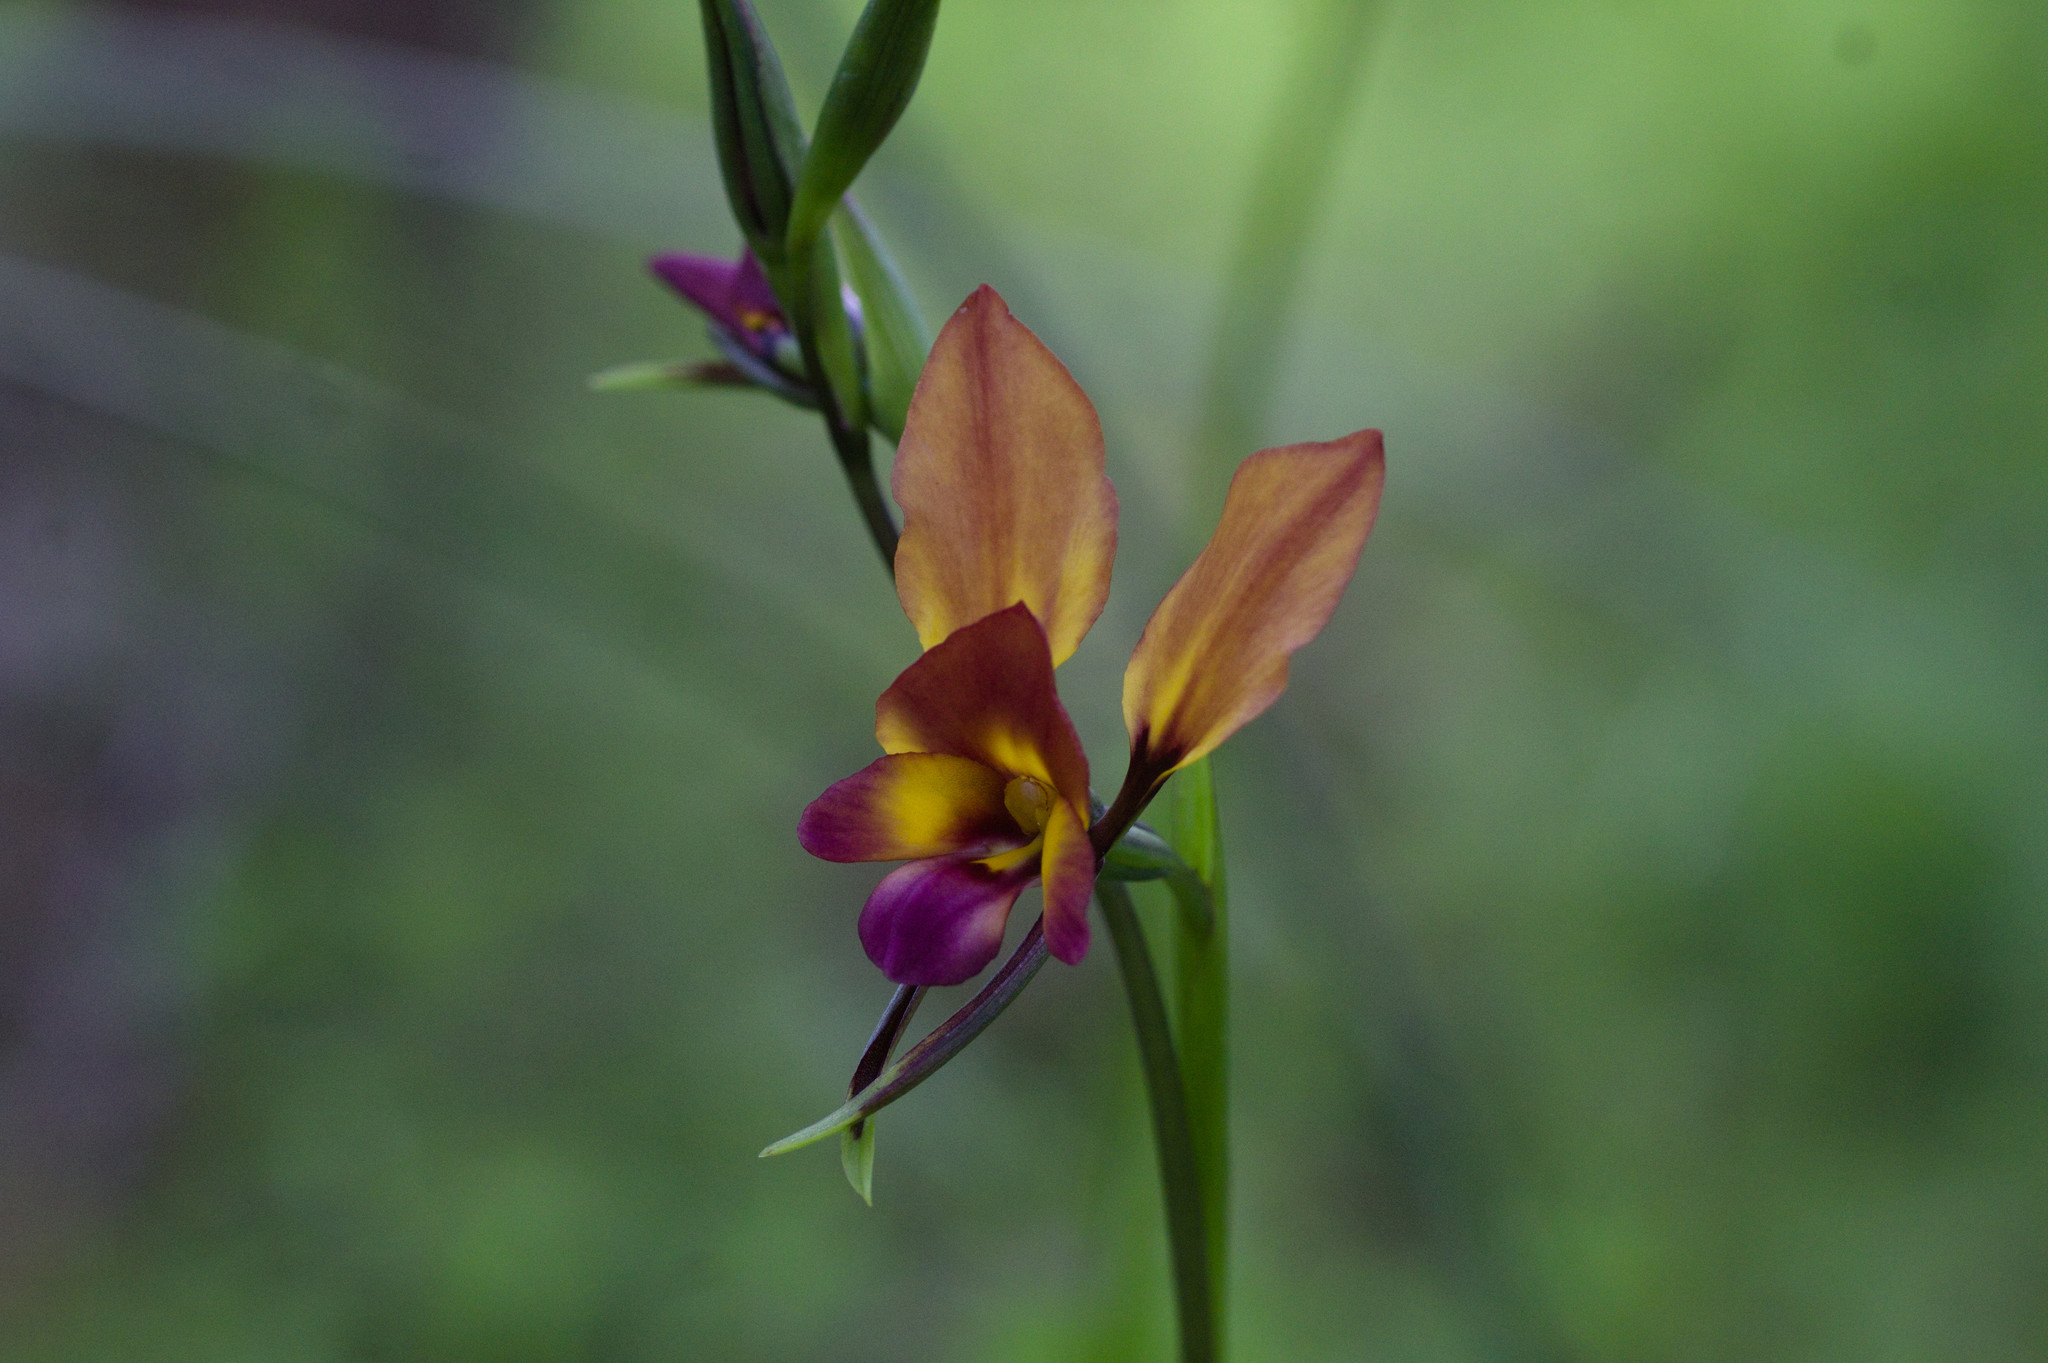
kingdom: Plantae
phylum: Tracheophyta
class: Liliopsida
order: Asparagales
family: Orchidaceae
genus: Diuris
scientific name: Diuris magnifica
